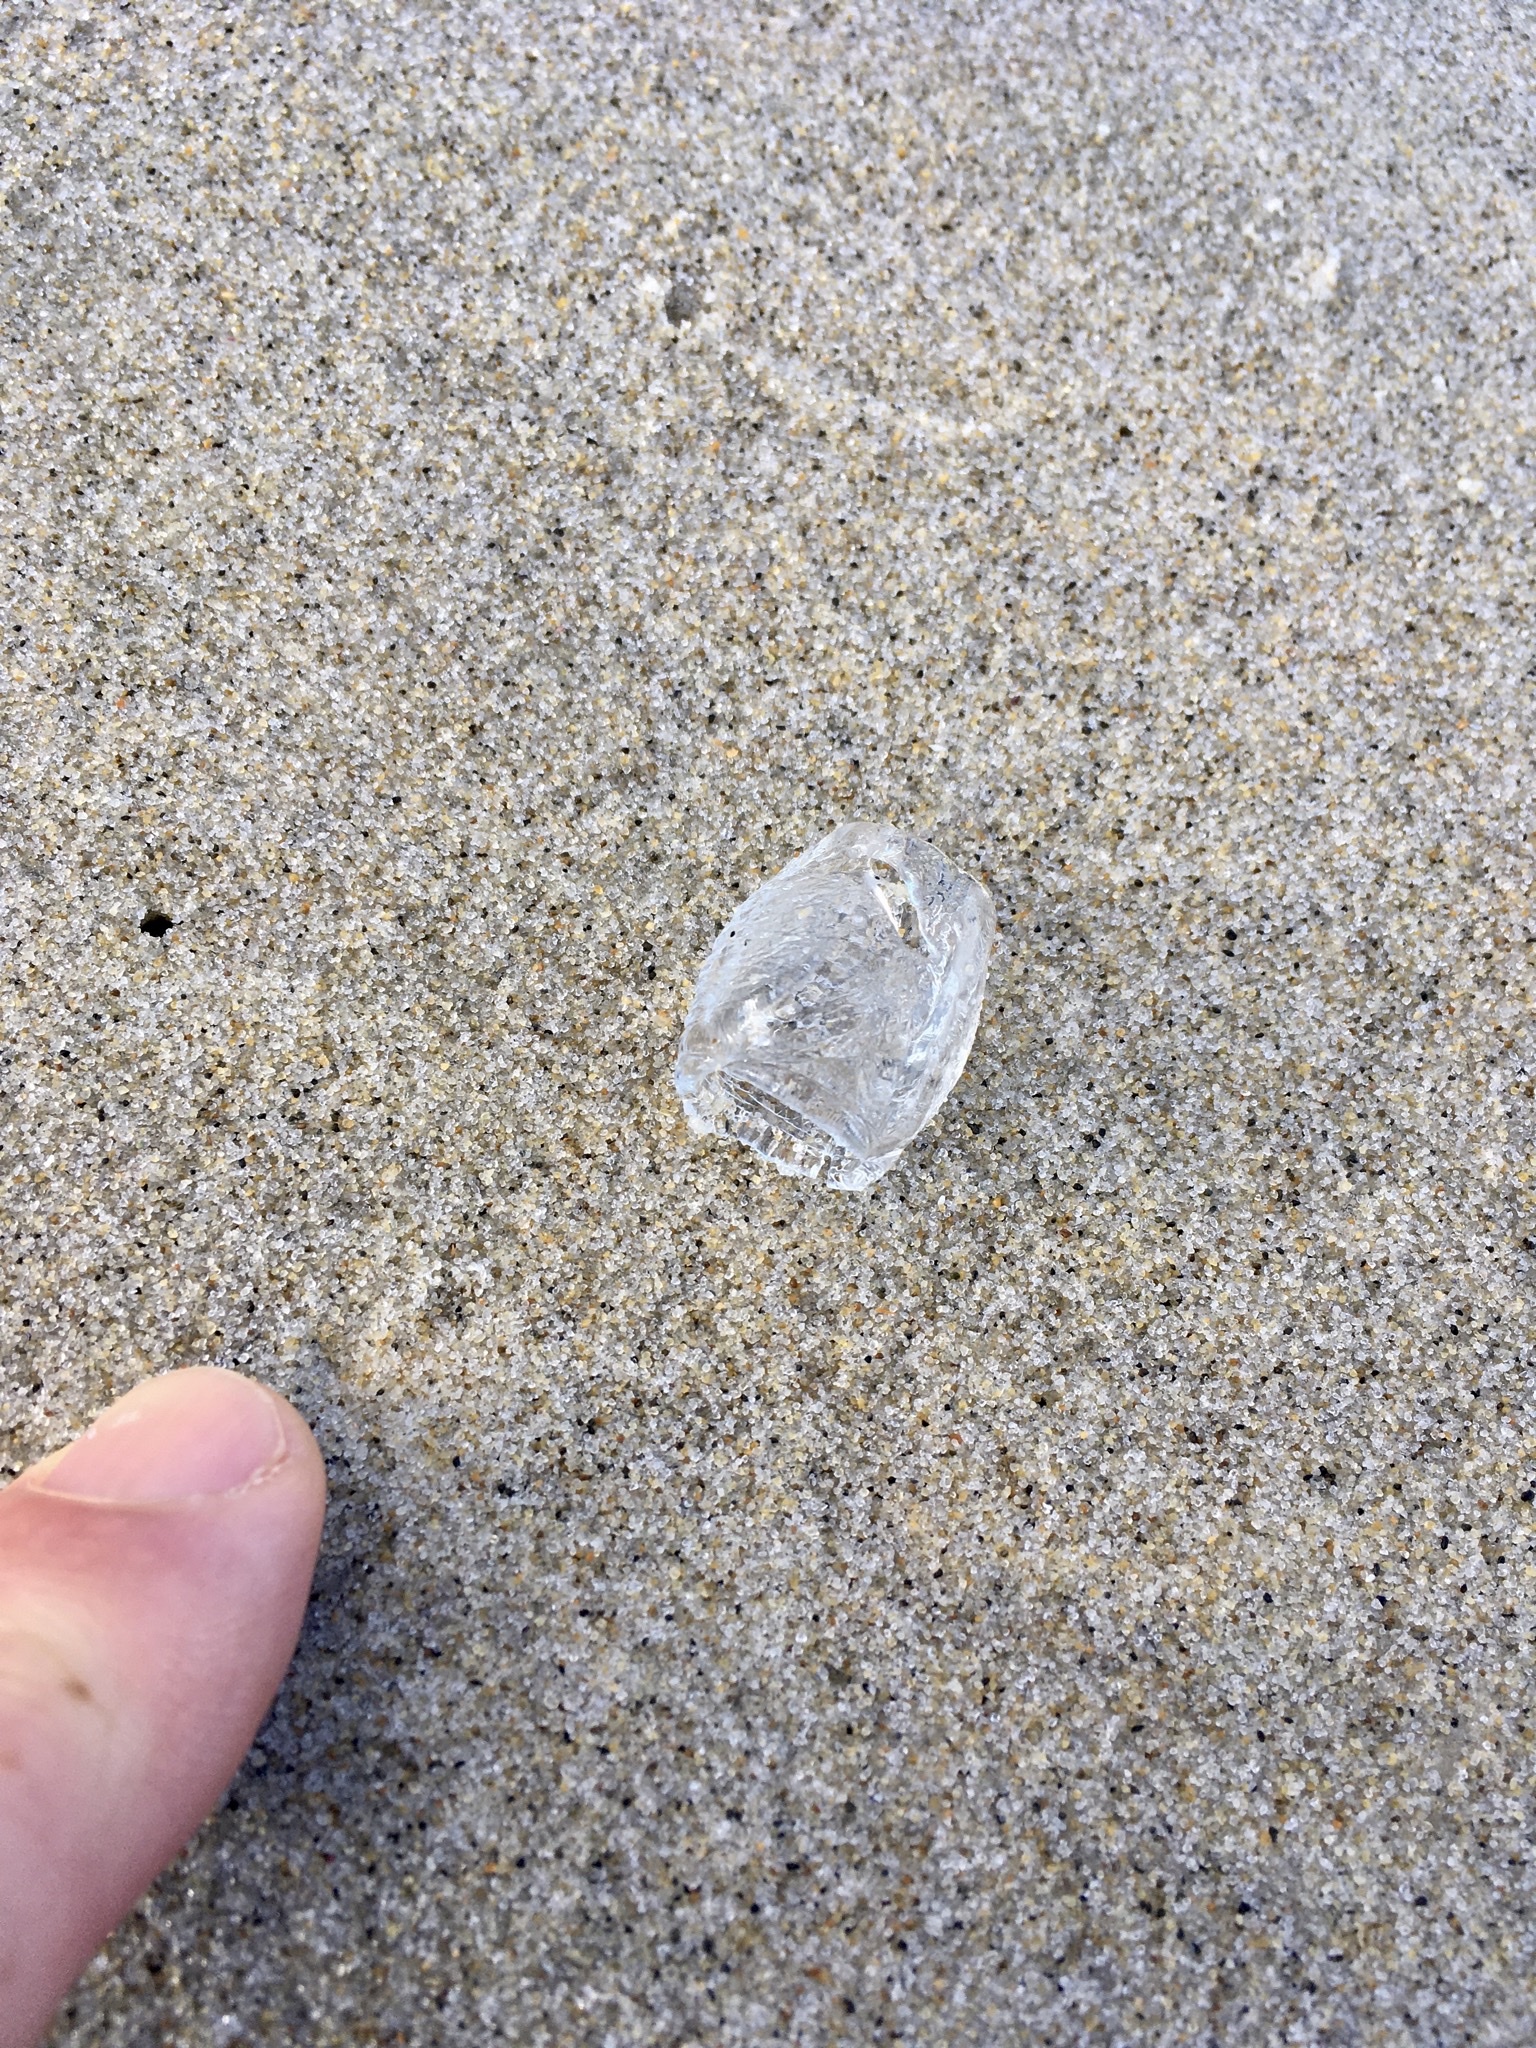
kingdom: Animalia
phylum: Arthropoda
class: Malacostraca
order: Amphipoda
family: Phronimidae
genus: Phronima
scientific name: Phronima sedentaria
